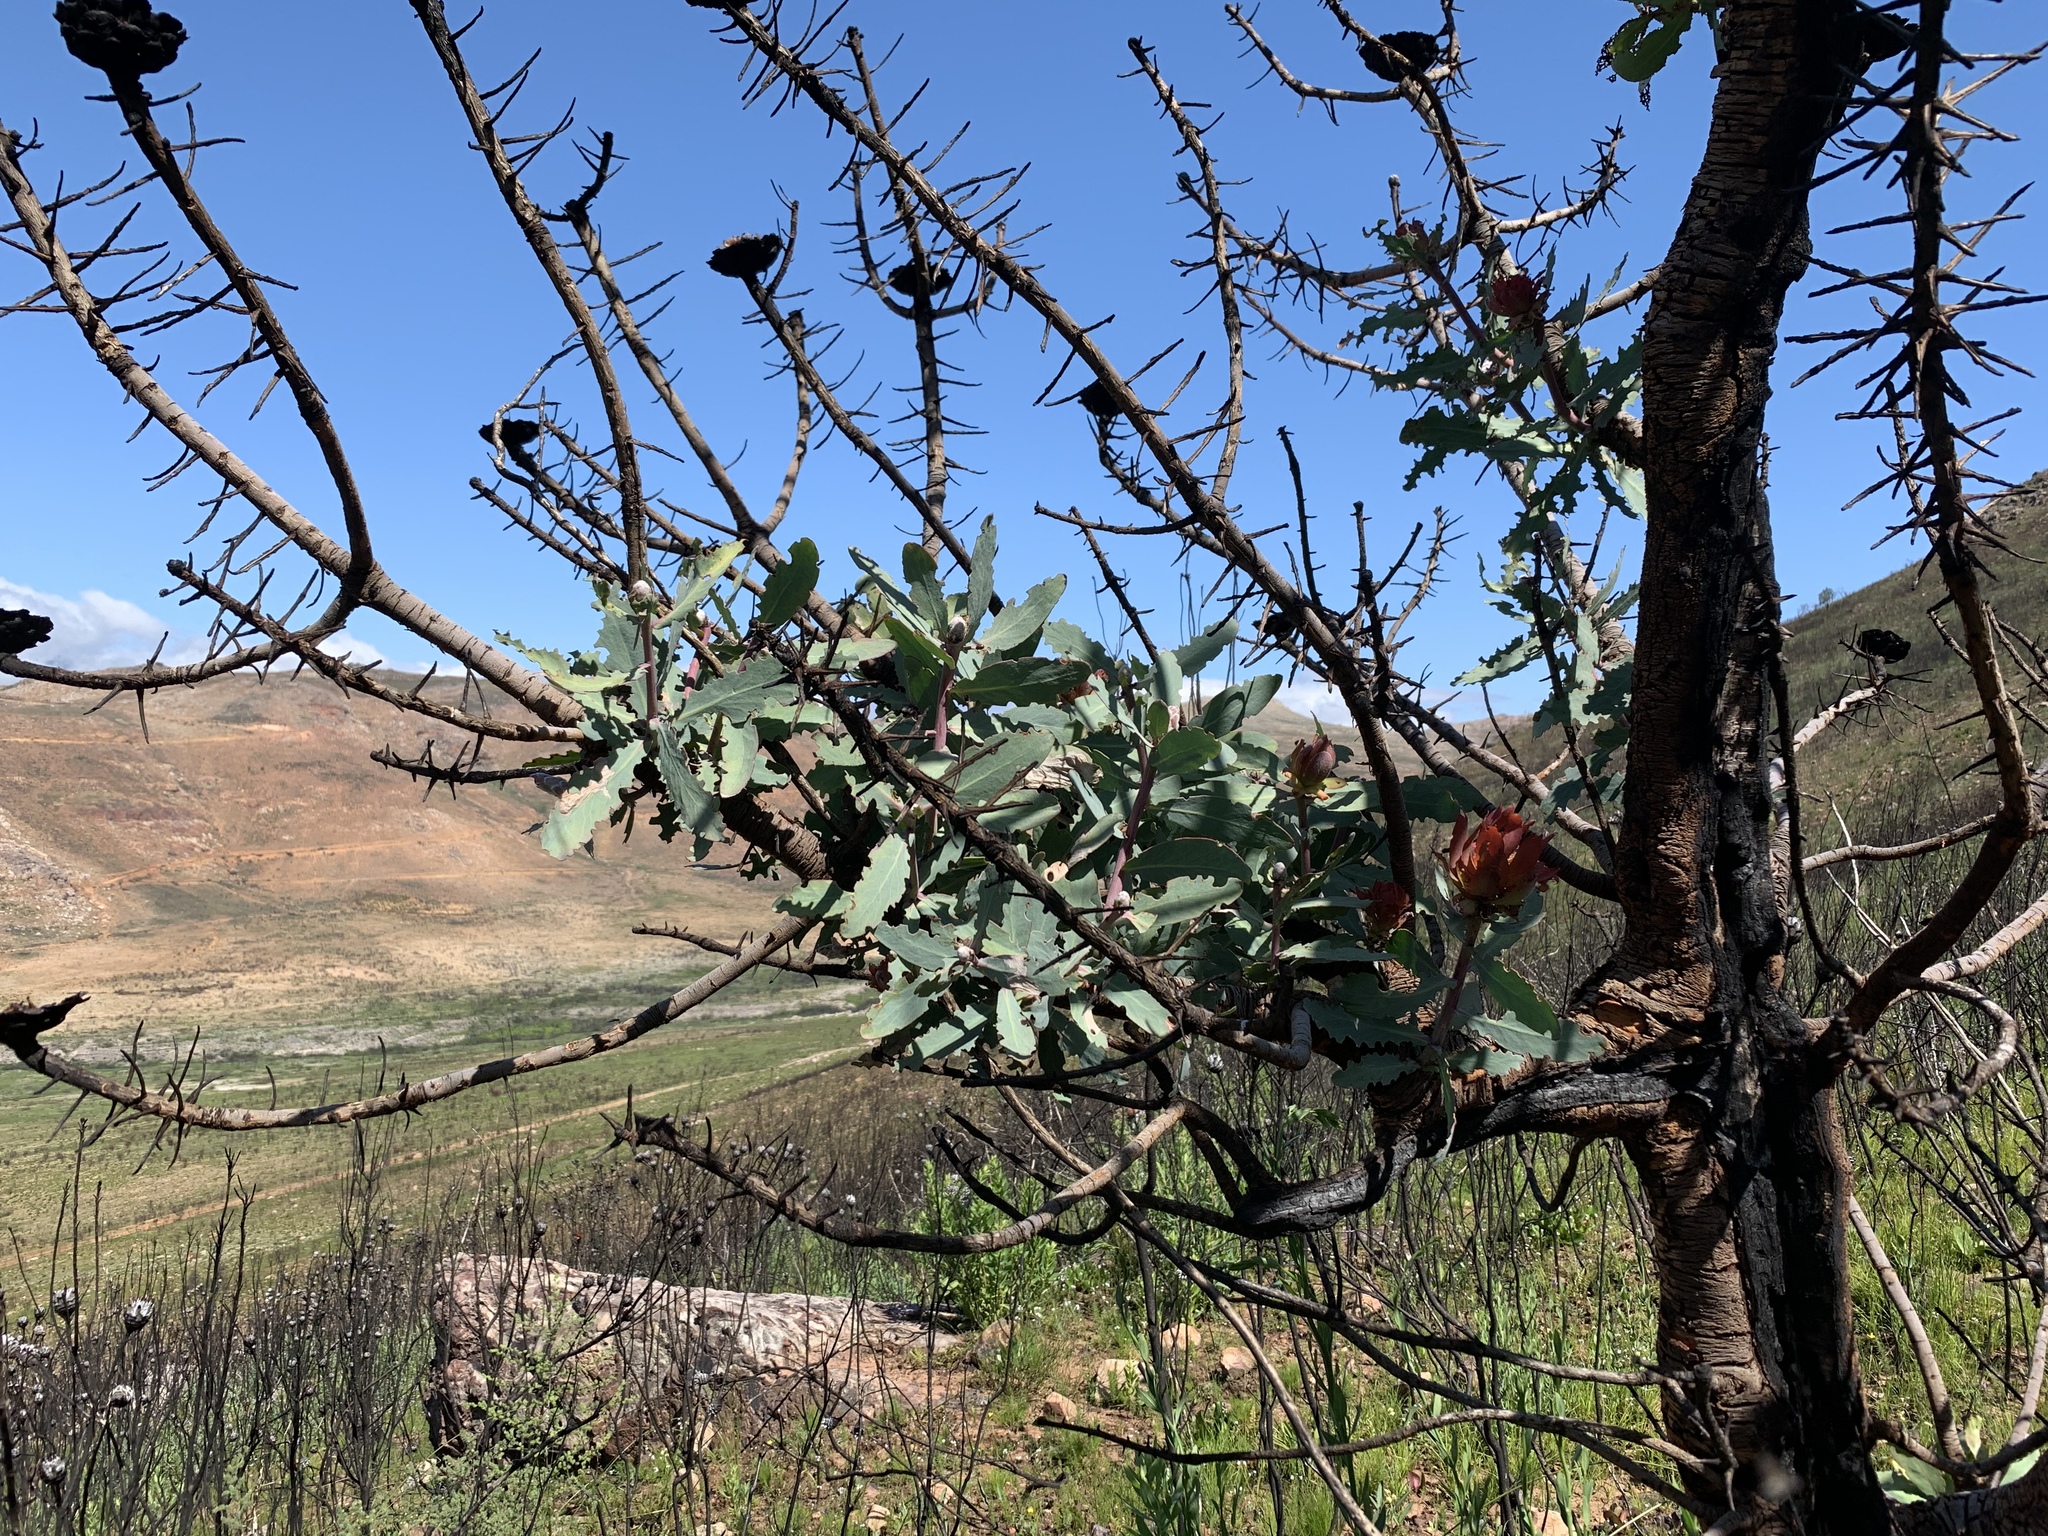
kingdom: Plantae
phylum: Tracheophyta
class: Magnoliopsida
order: Proteales
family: Proteaceae
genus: Protea
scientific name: Protea nitida
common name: Tree protea
